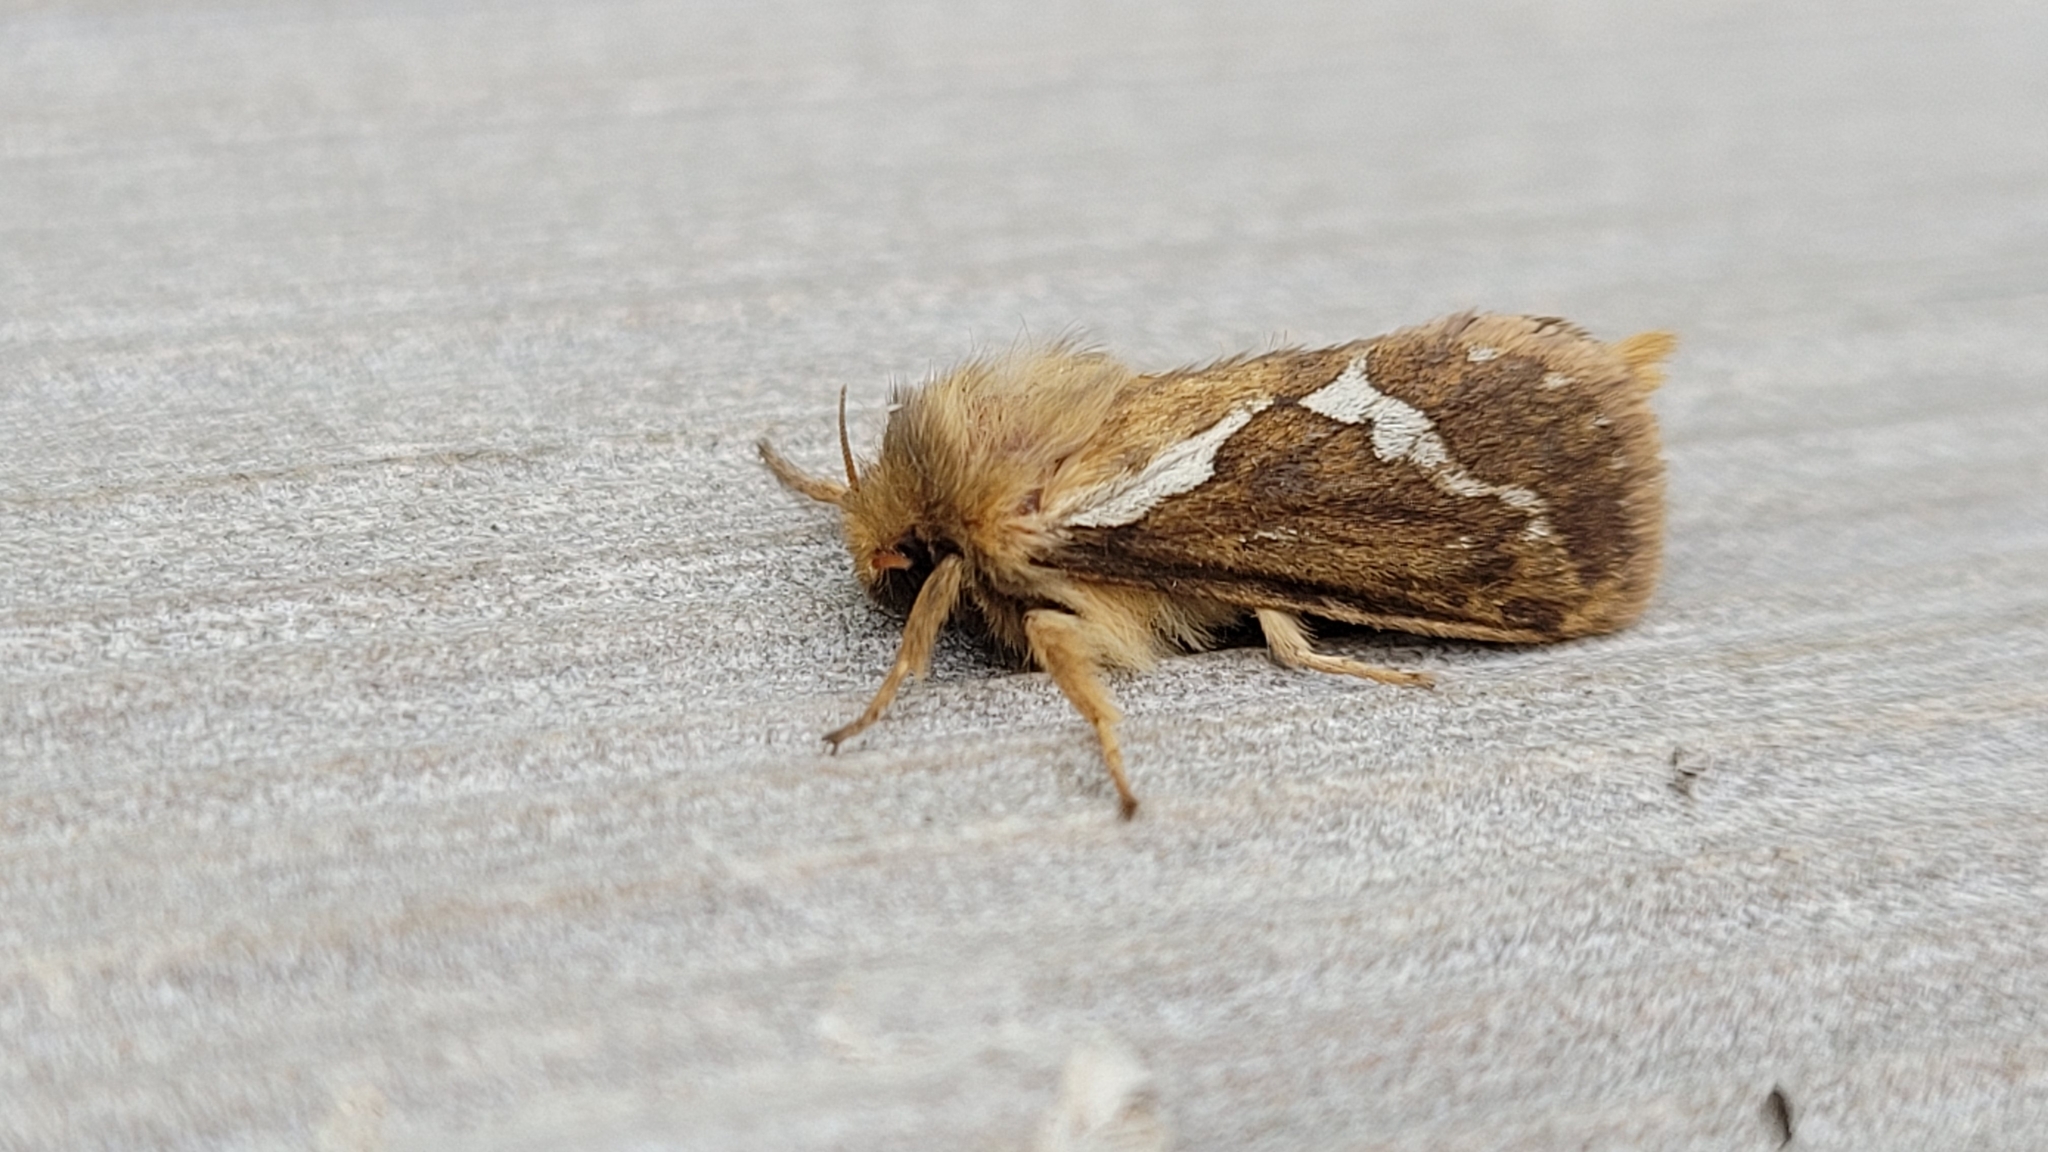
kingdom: Animalia
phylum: Arthropoda
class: Insecta
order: Lepidoptera
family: Hepialidae
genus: Korscheltellus
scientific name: Korscheltellus lupulina
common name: Common swift
